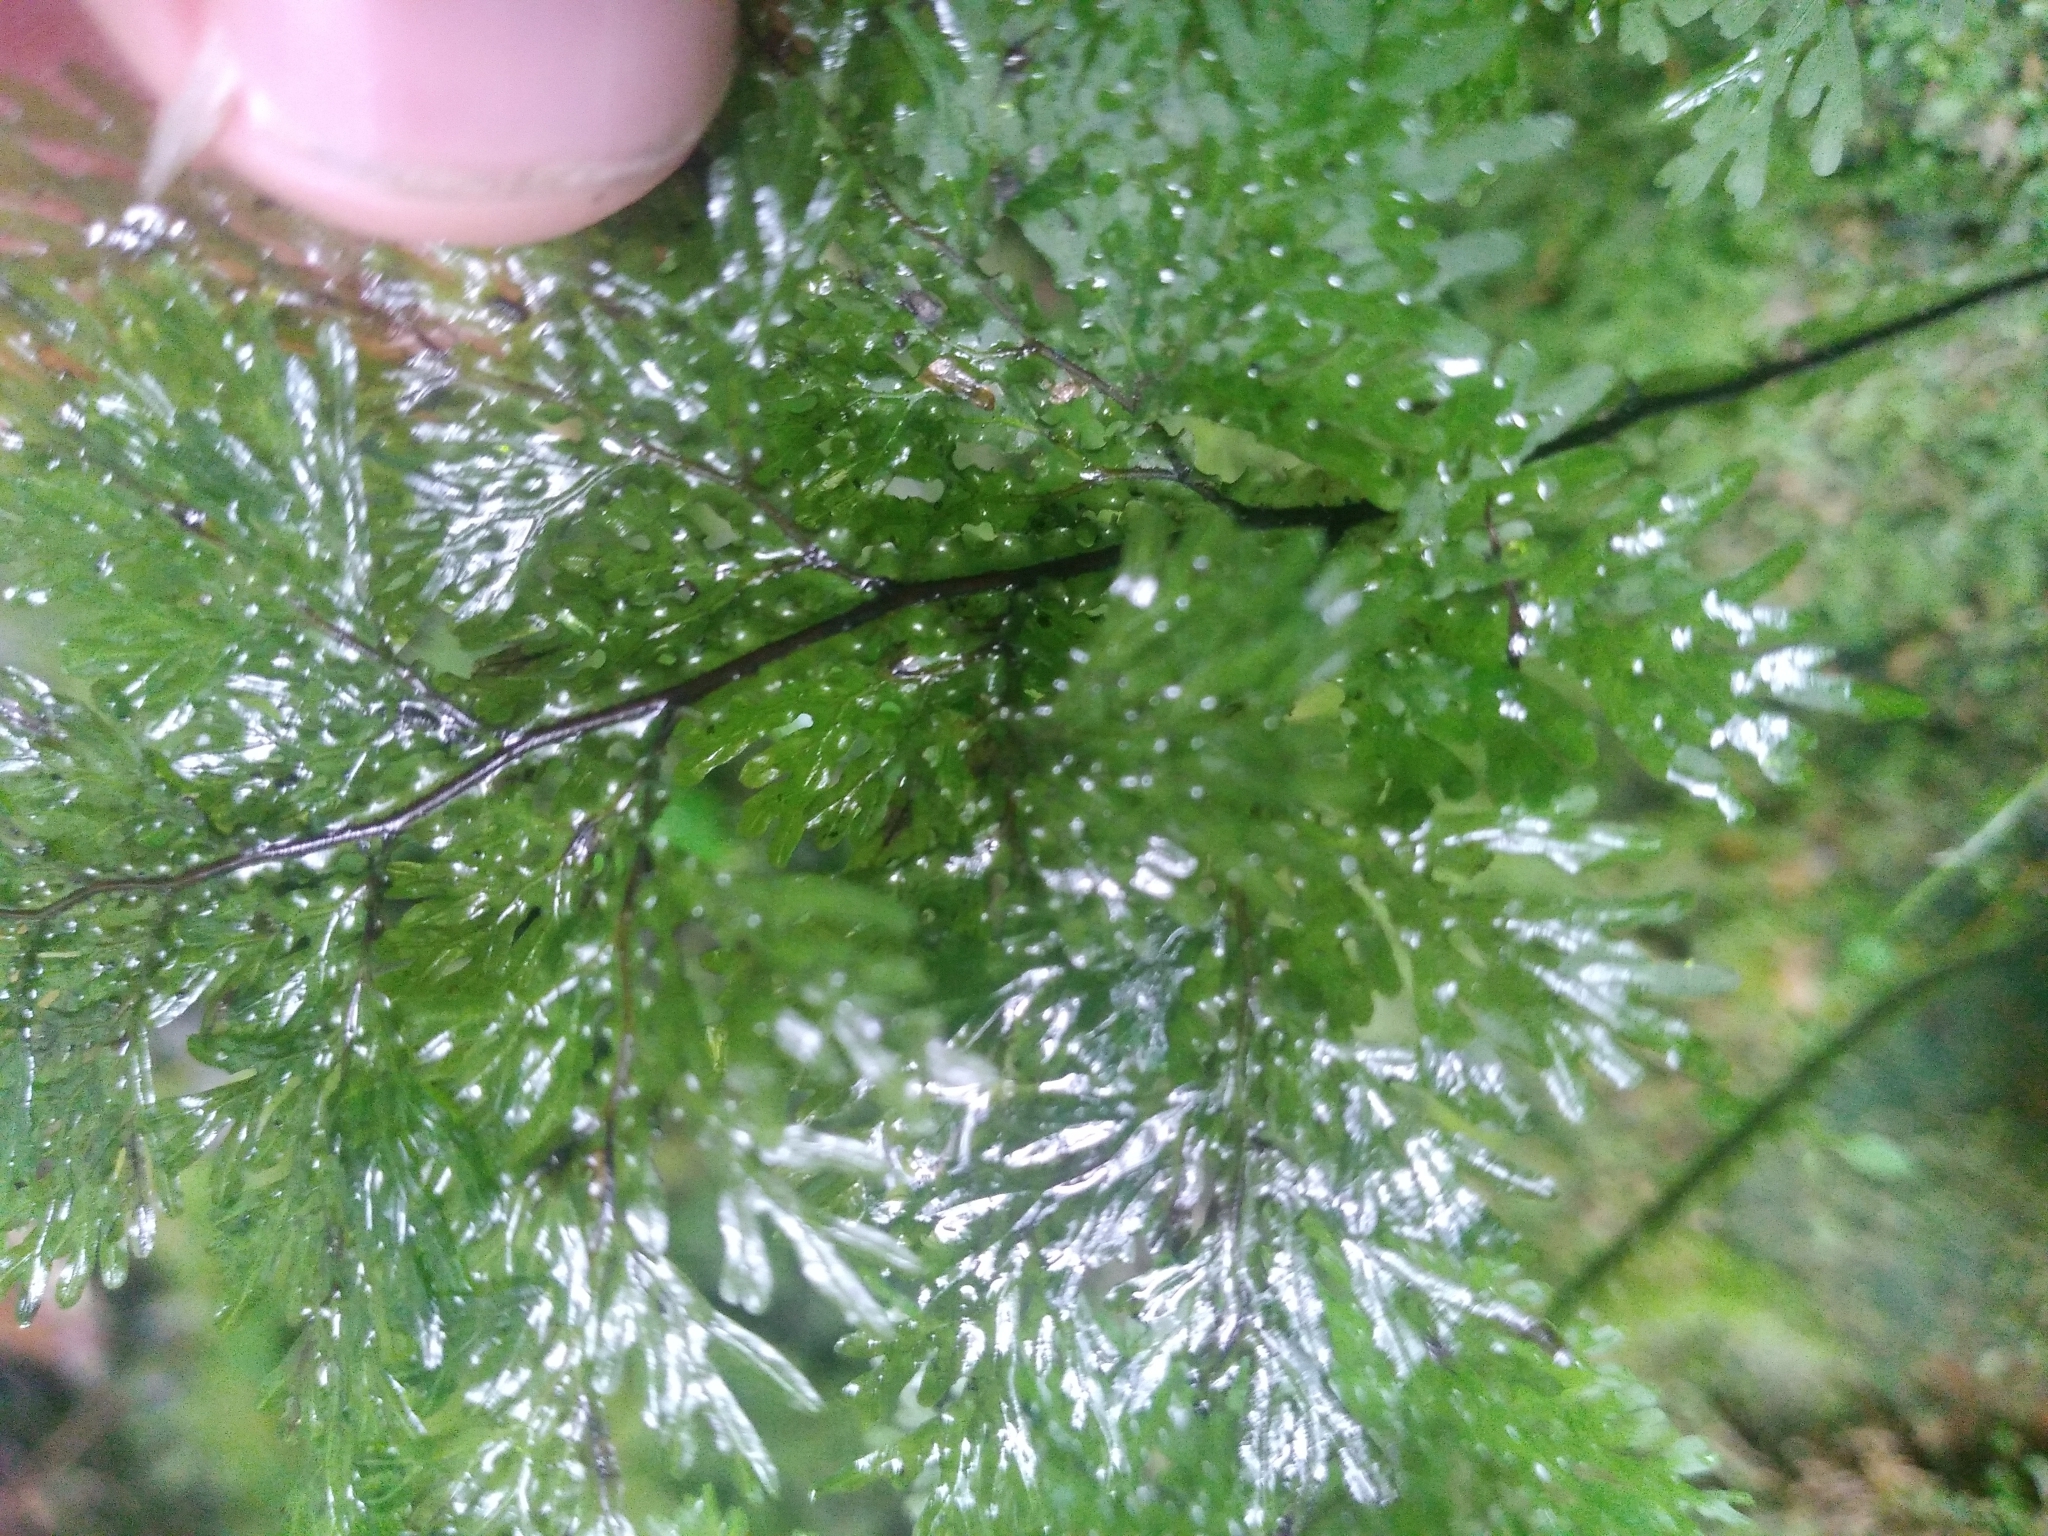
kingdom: Plantae
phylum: Tracheophyta
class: Polypodiopsida
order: Hymenophyllales
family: Hymenophyllaceae
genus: Hymenophyllum
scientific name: Hymenophyllum flexuosum
